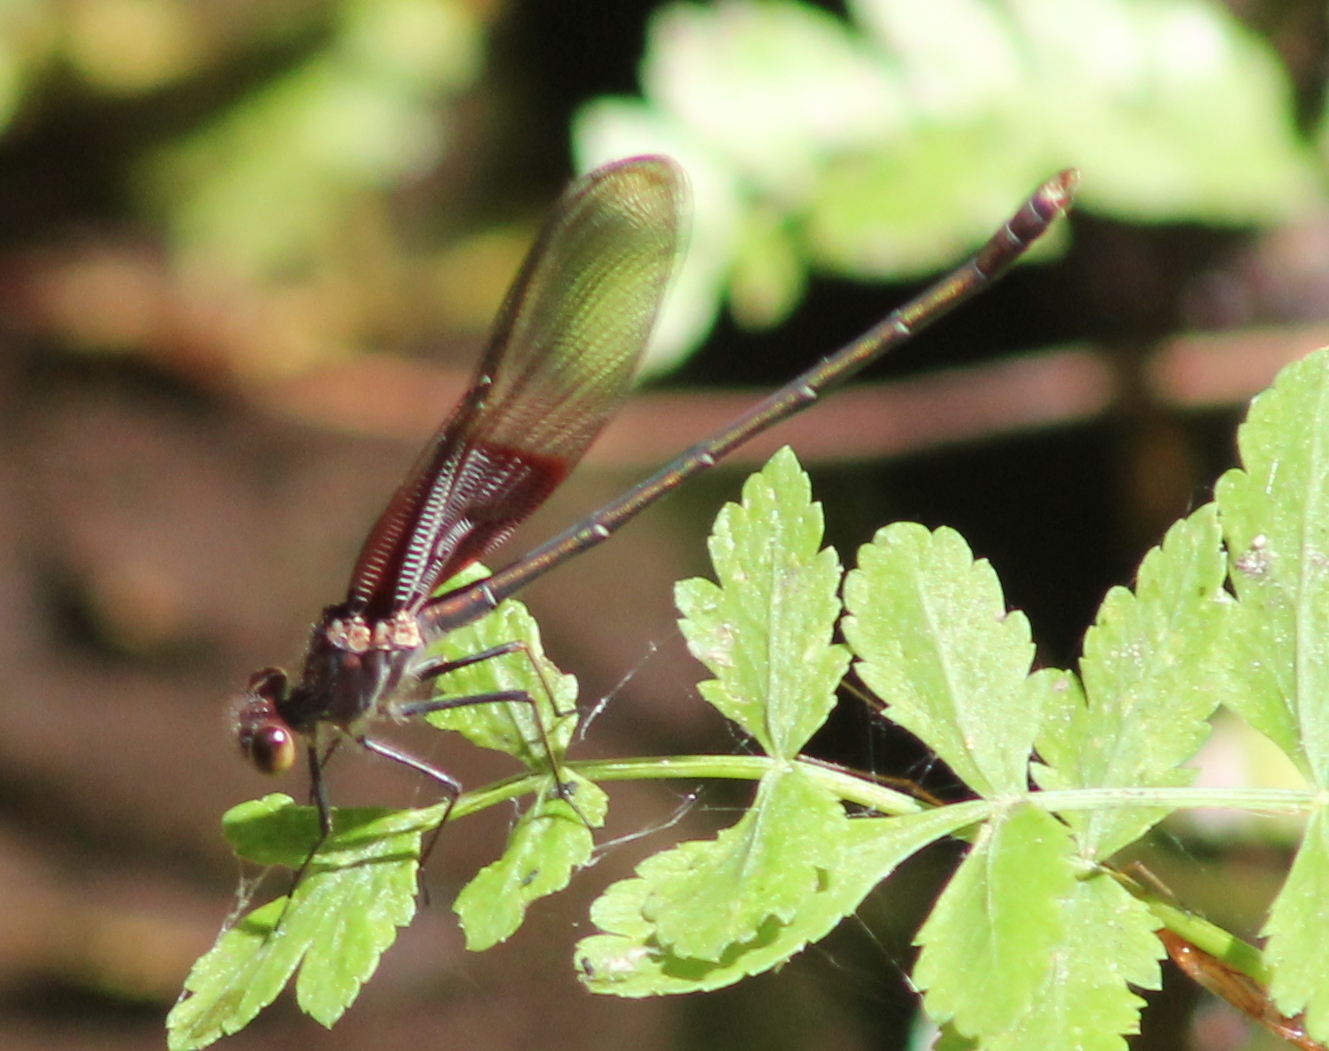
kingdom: Animalia
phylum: Arthropoda
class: Insecta
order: Odonata
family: Calopterygidae
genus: Hetaerina
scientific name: Hetaerina americana
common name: American rubyspot
